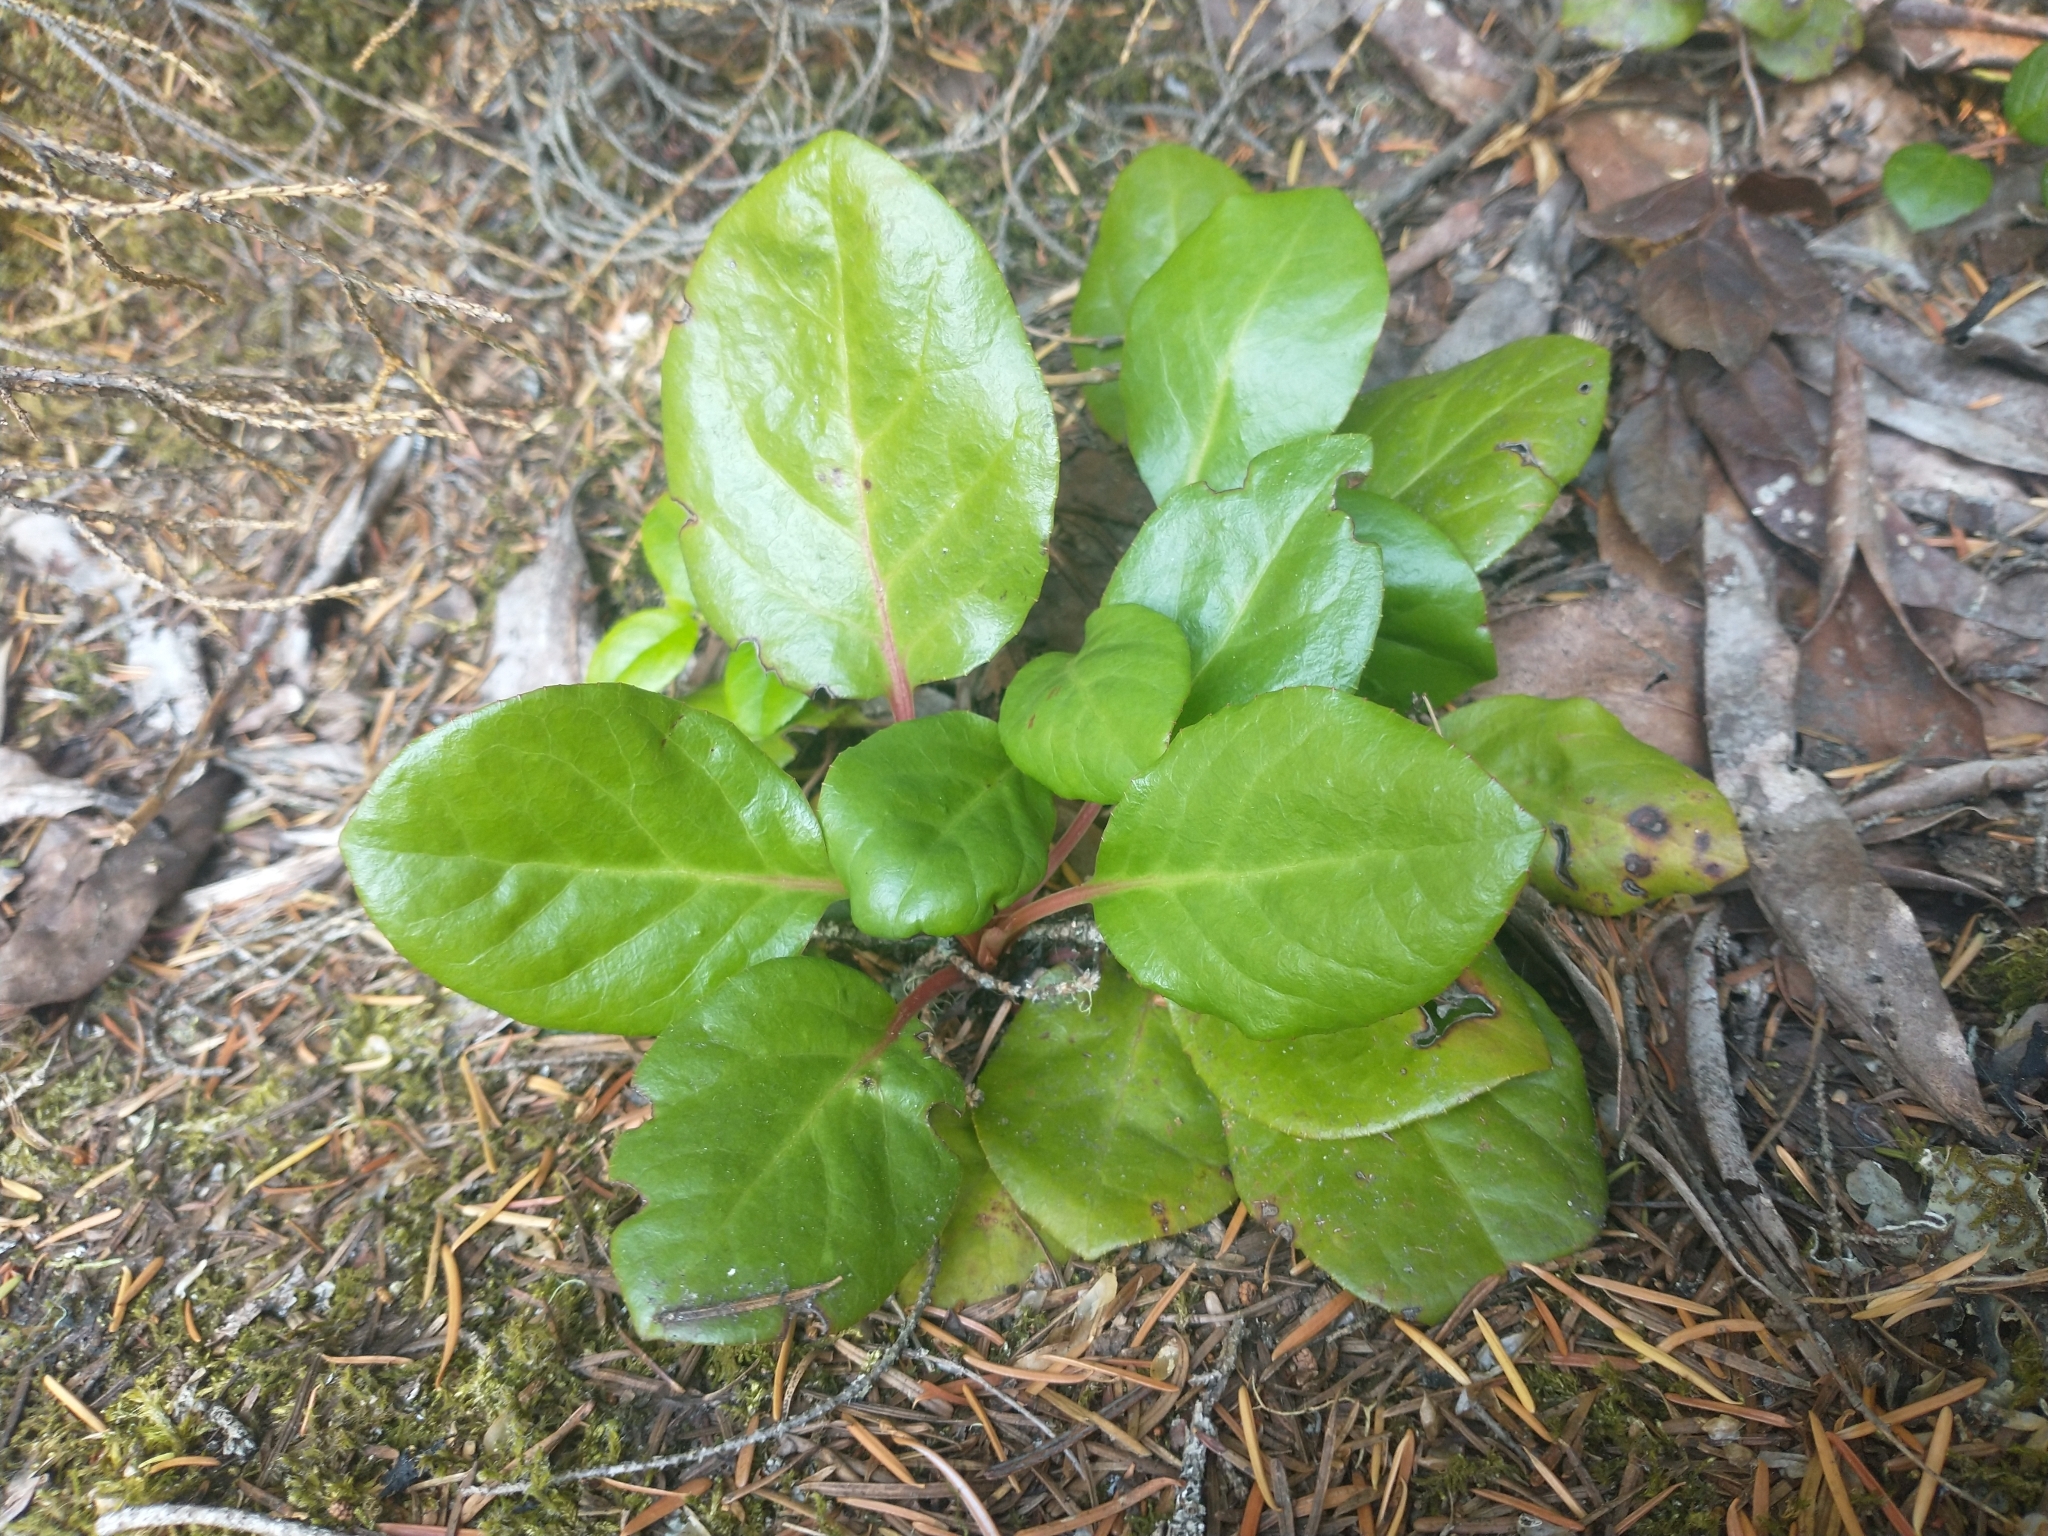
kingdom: Plantae
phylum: Tracheophyta
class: Magnoliopsida
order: Ericales
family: Ericaceae
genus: Pyrola
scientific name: Pyrola asarifolia
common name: Bog wintergreen
